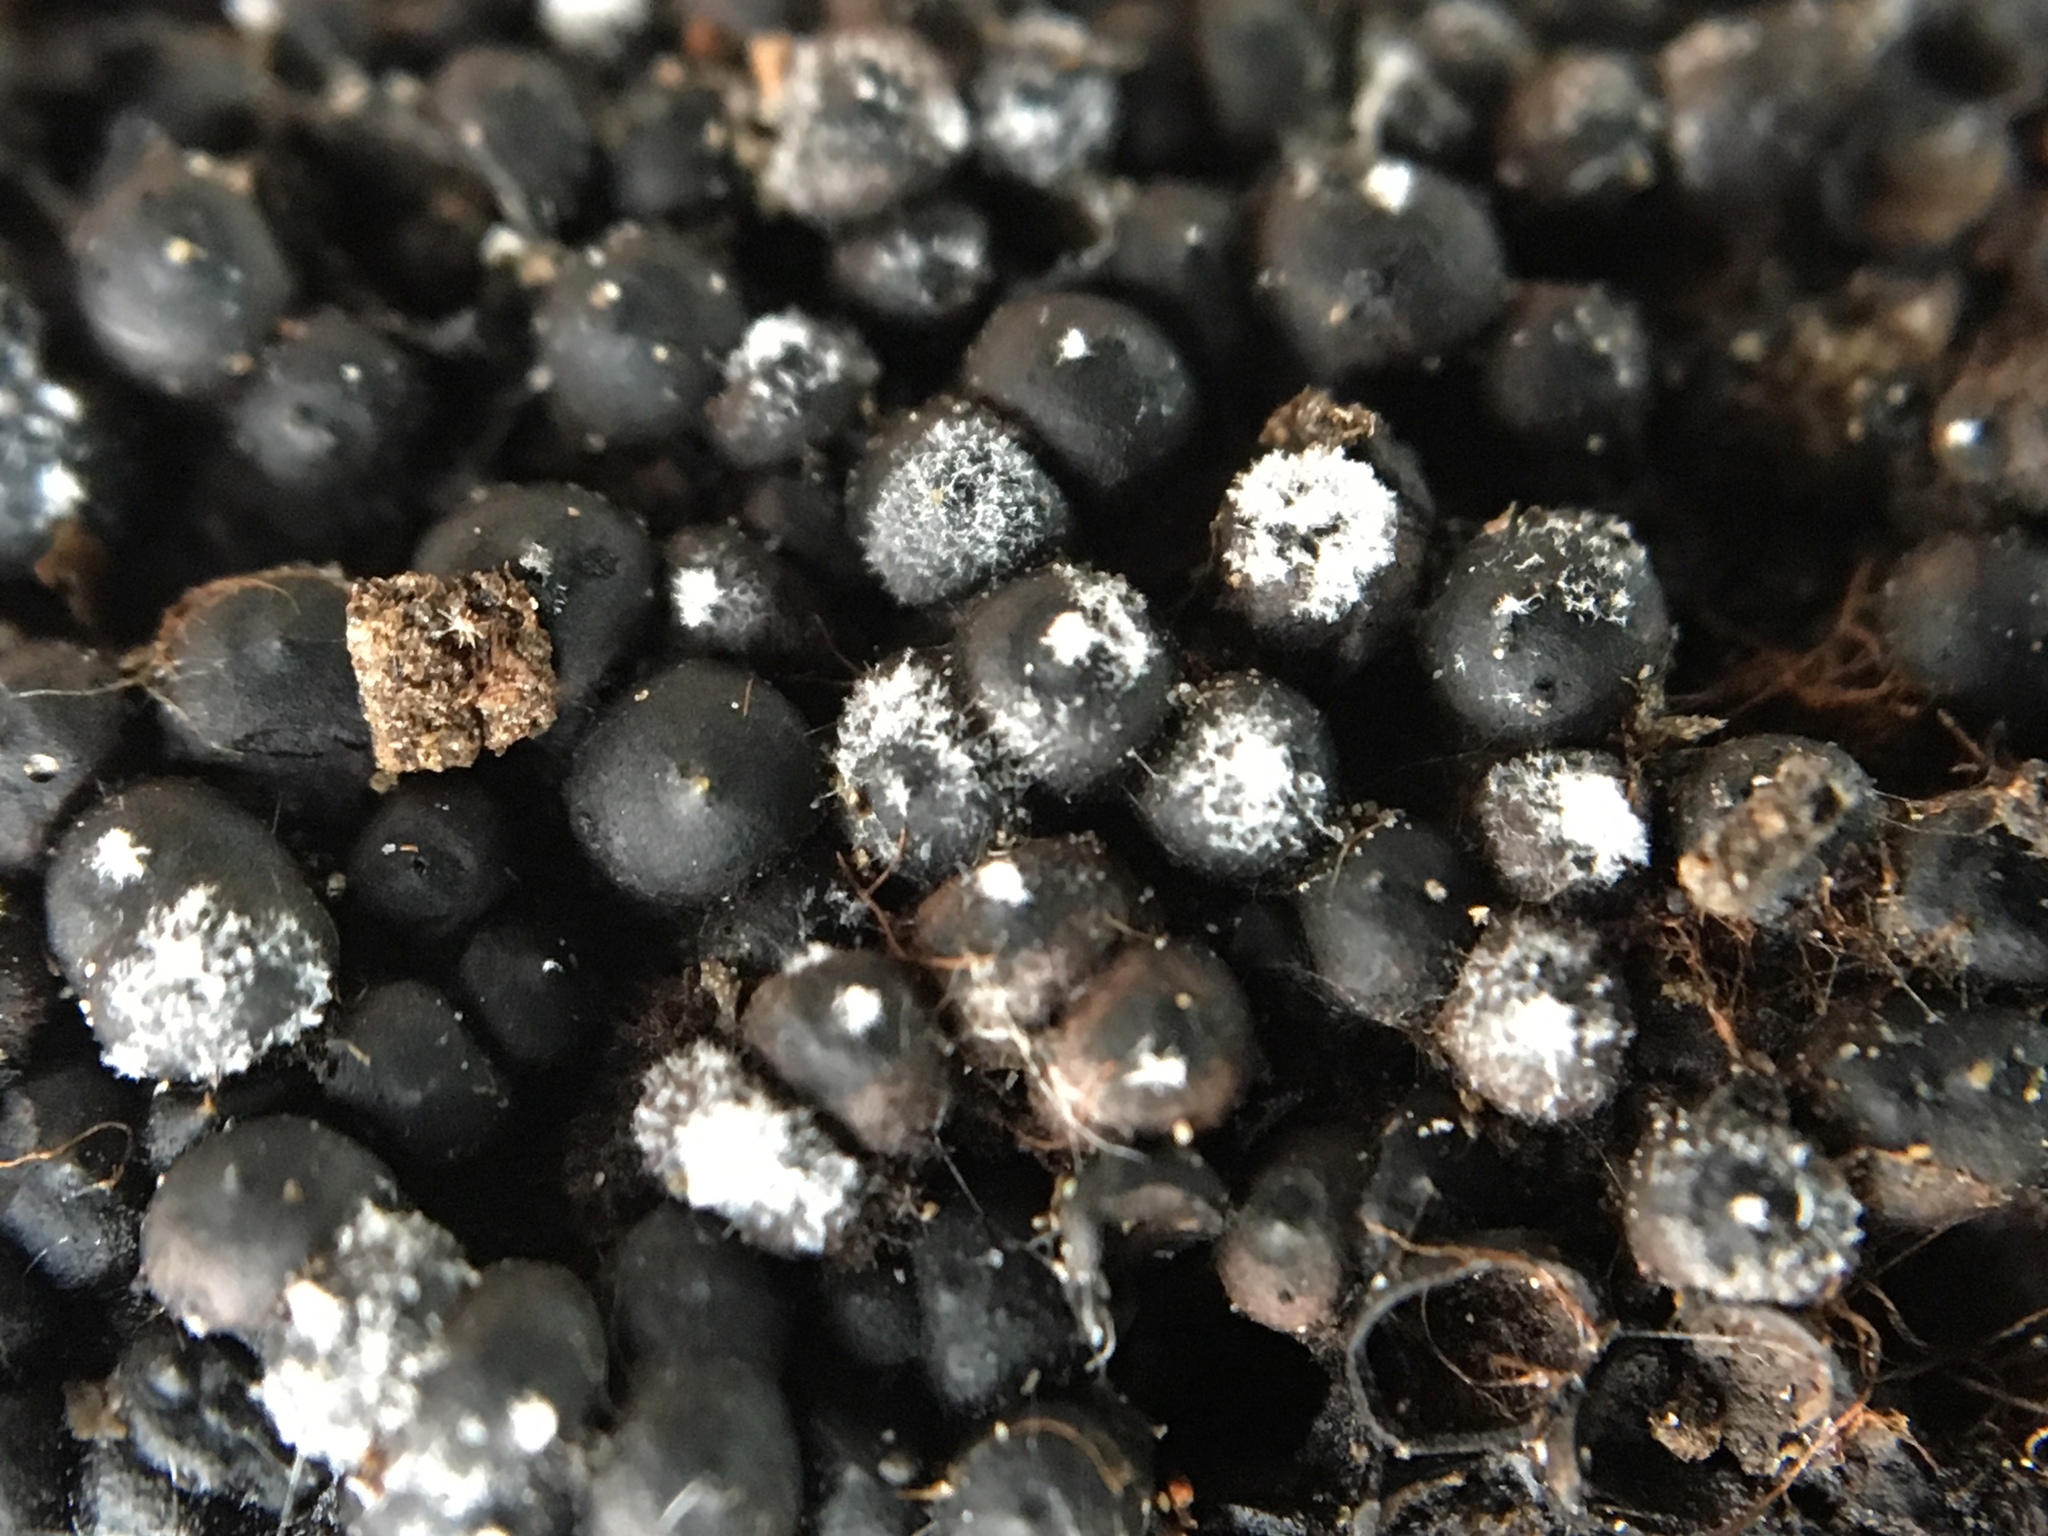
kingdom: Fungi
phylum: Ascomycota
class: Sordariomycetes
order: Xylariales
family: Xylariaceae
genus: Rosellinia
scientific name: Rosellinia subiculata
